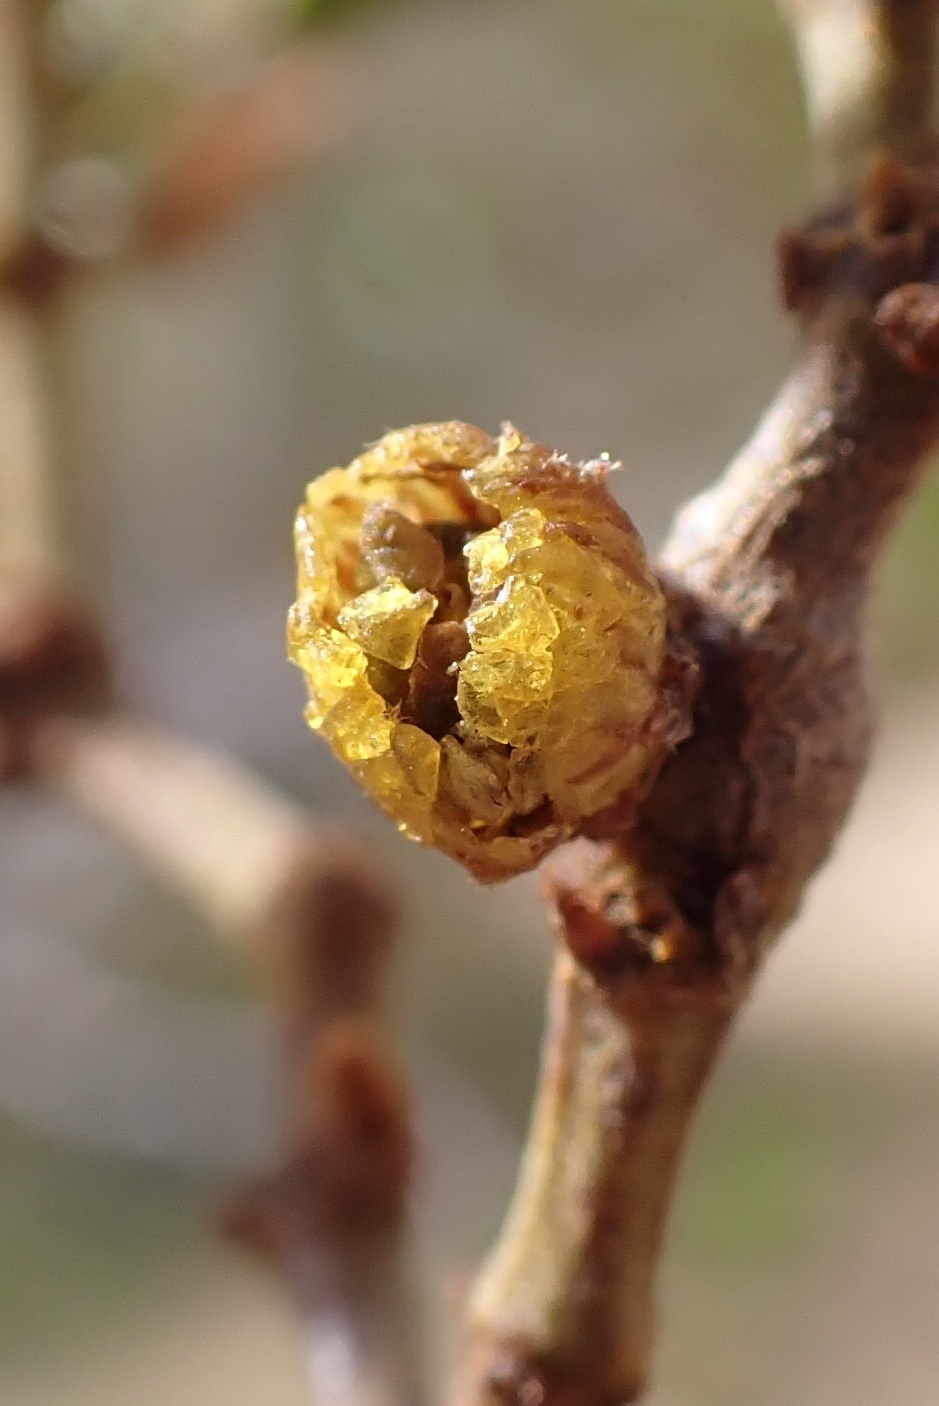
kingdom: Animalia
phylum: Arthropoda
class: Insecta
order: Diptera
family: Cecidomyiidae
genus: Asphondylia
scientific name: Asphondylia resinosa
